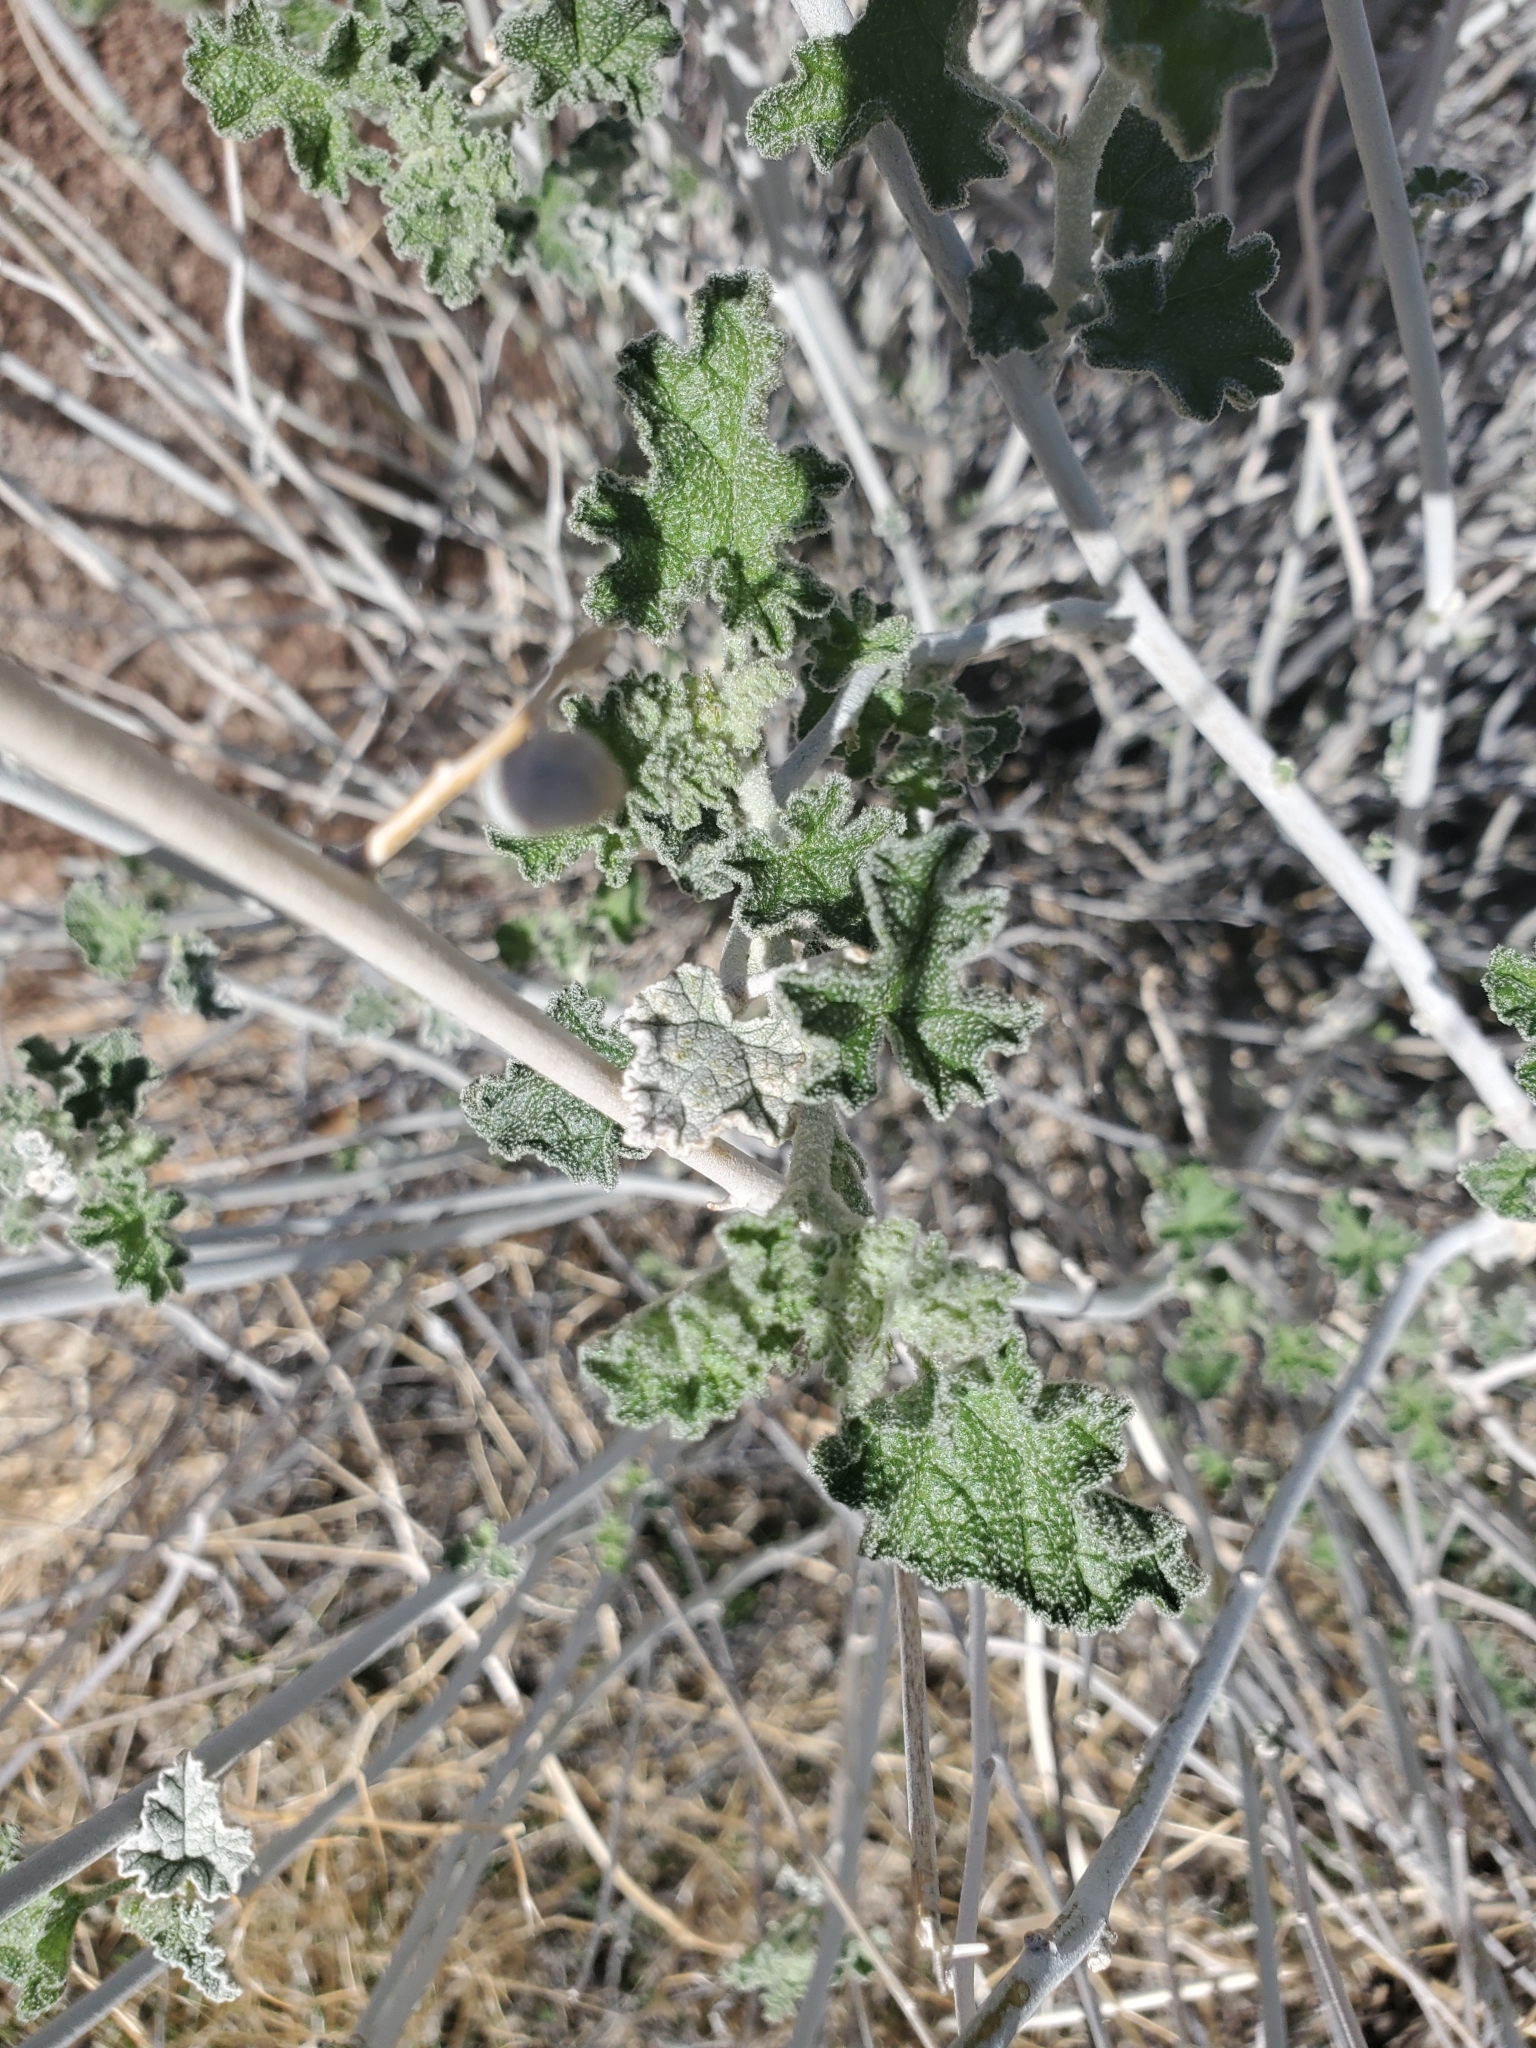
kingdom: Plantae
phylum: Tracheophyta
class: Magnoliopsida
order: Malvales
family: Malvaceae
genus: Sphaeralcea
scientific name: Sphaeralcea ambigua
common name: Apricot globe-mallow
